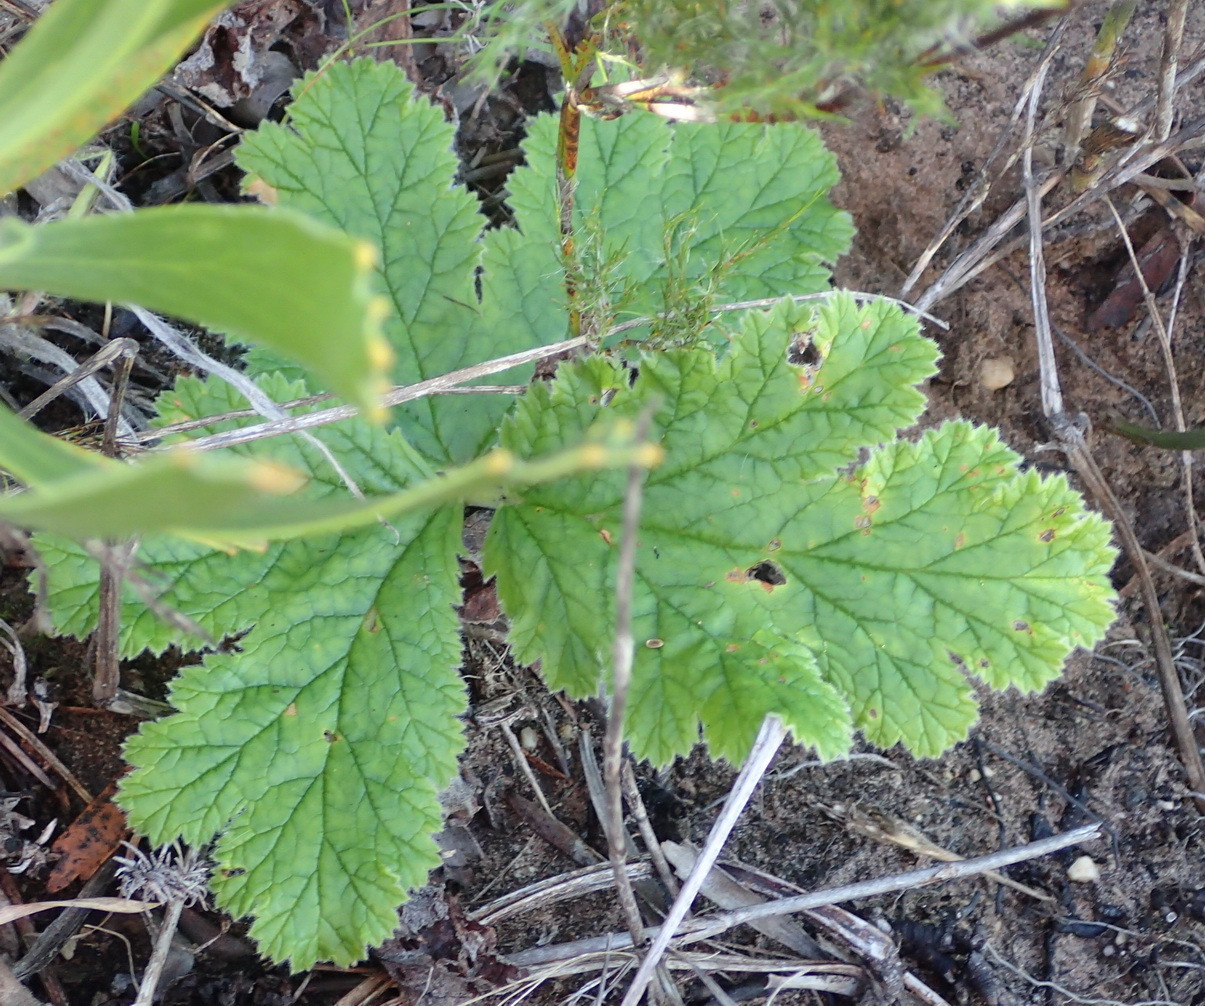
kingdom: Plantae
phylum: Tracheophyta
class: Magnoliopsida
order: Geraniales
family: Geraniaceae
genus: Pelargonium
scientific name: Pelargonium lobatum
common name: Vine-leaf pelargonium
